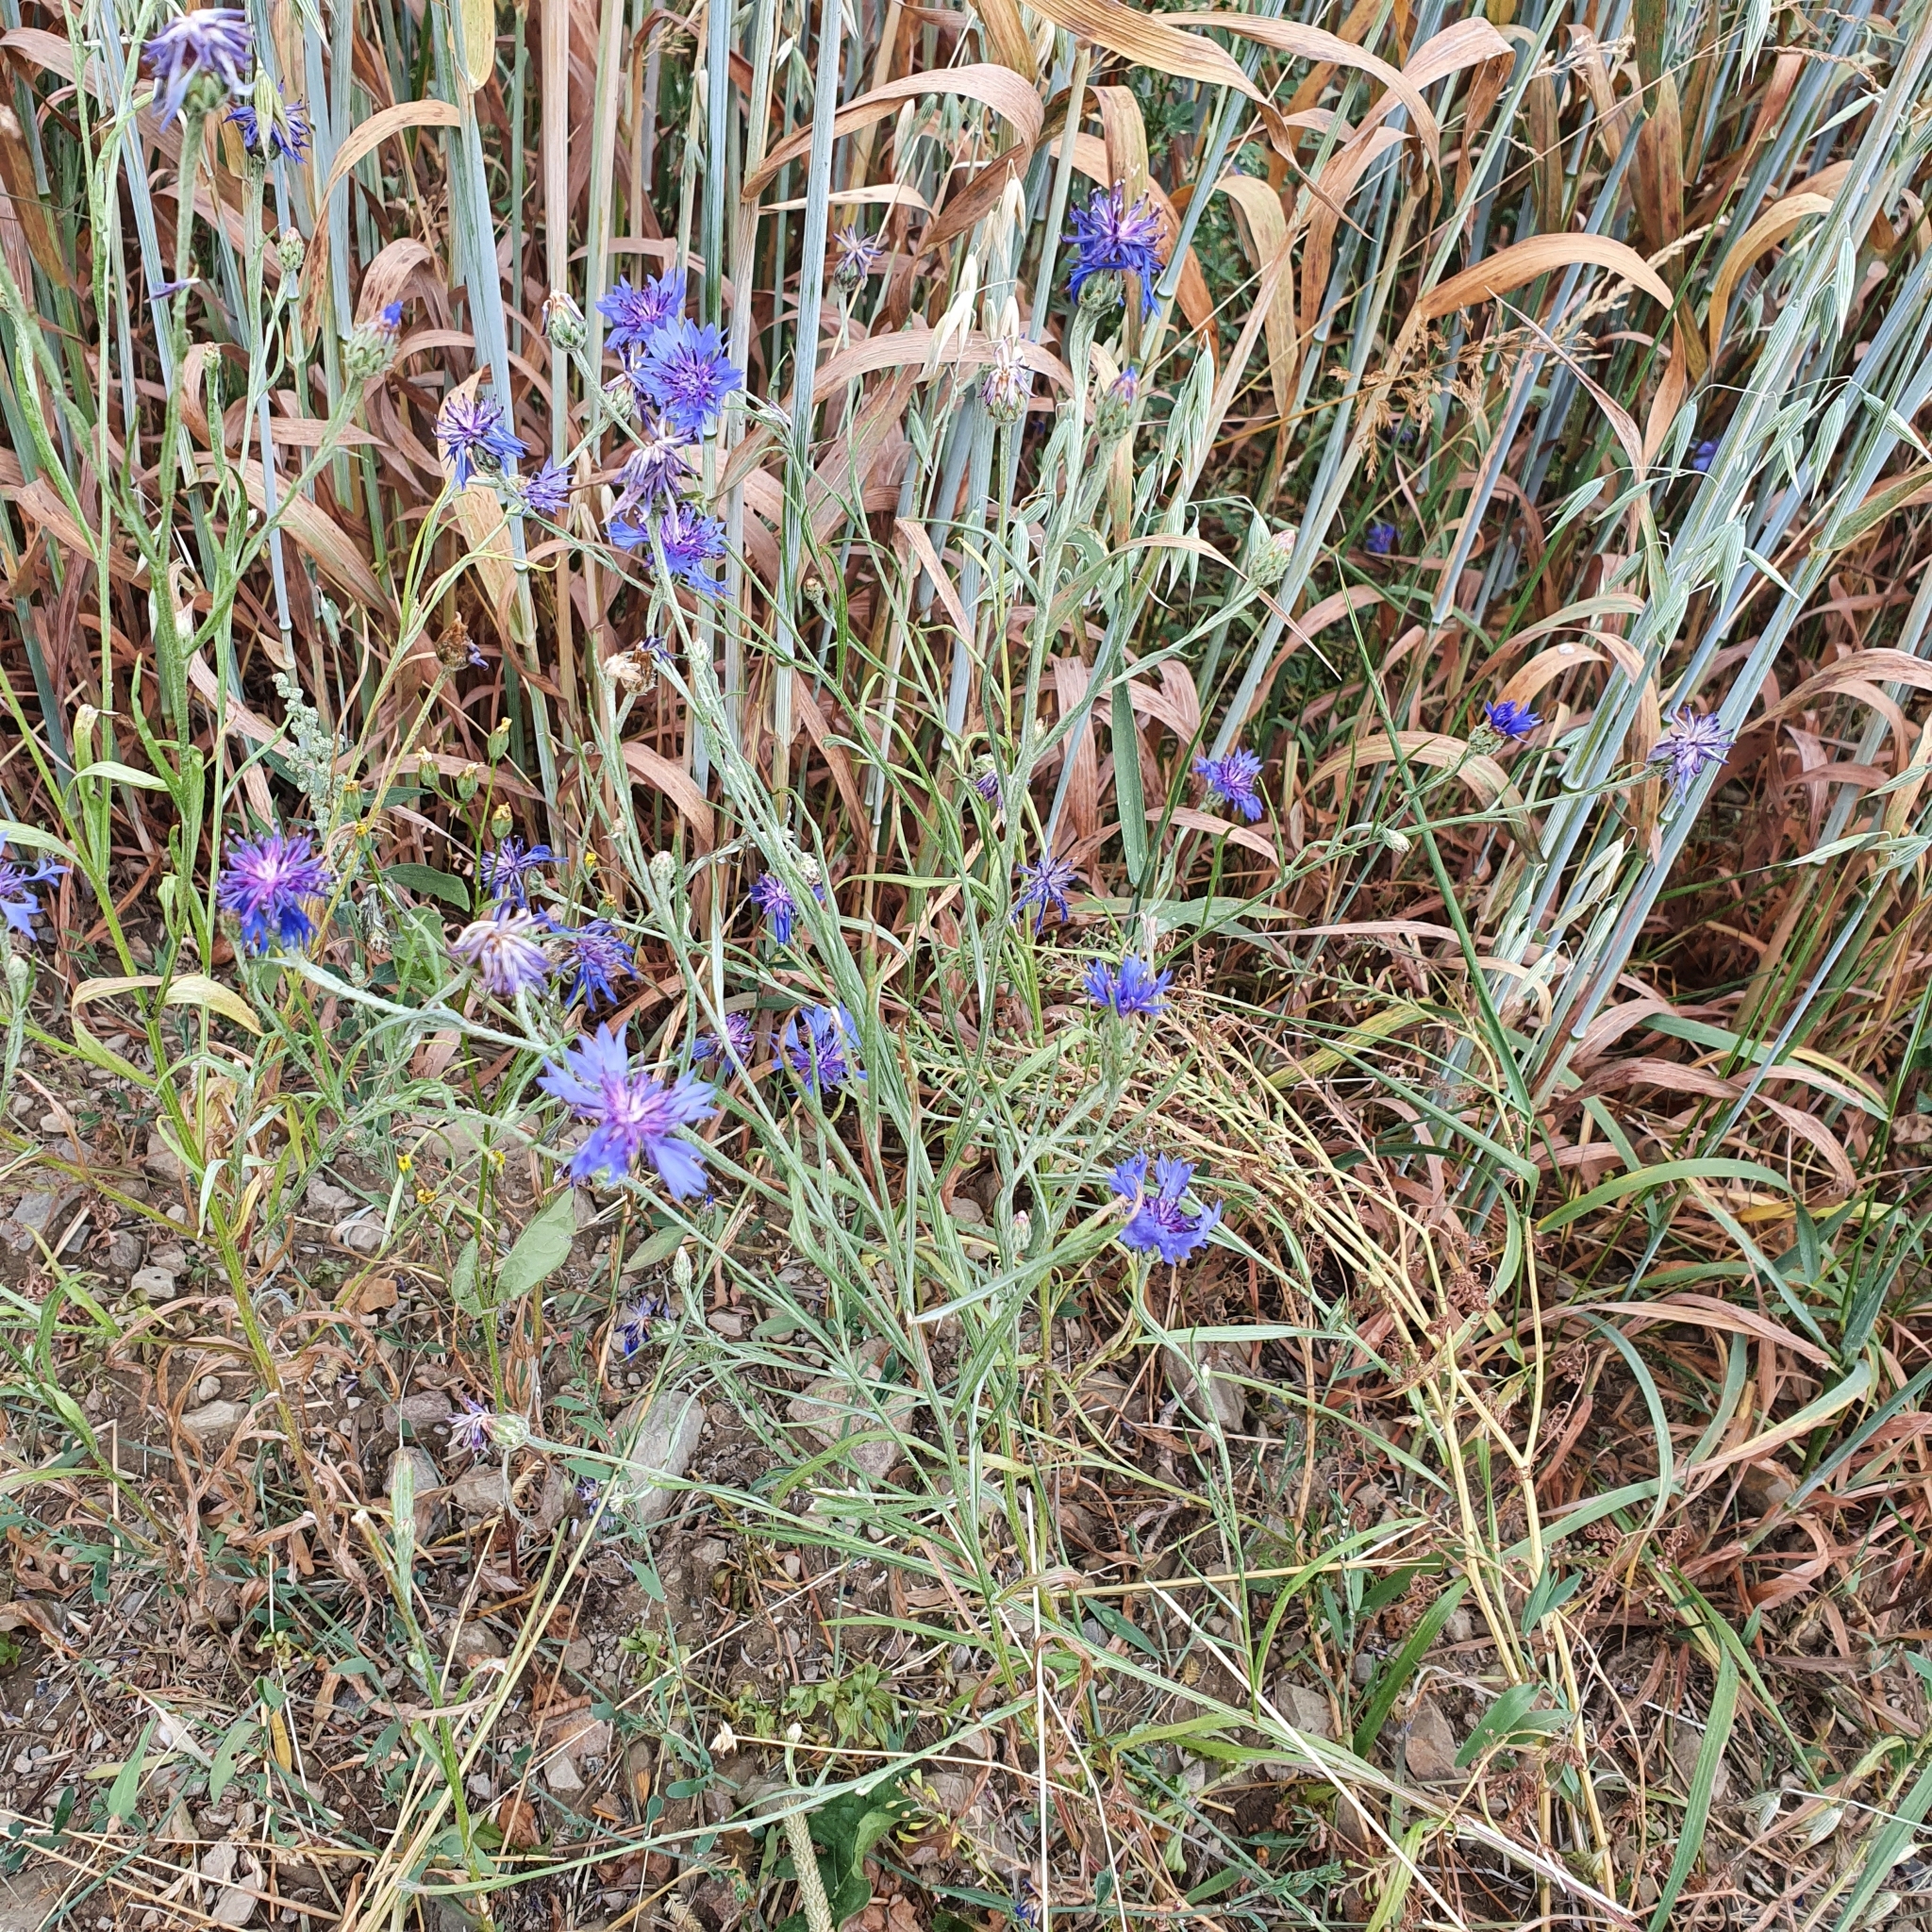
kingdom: Plantae
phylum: Tracheophyta
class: Magnoliopsida
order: Asterales
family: Asteraceae
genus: Centaurea
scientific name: Centaurea cyanus
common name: Cornflower
